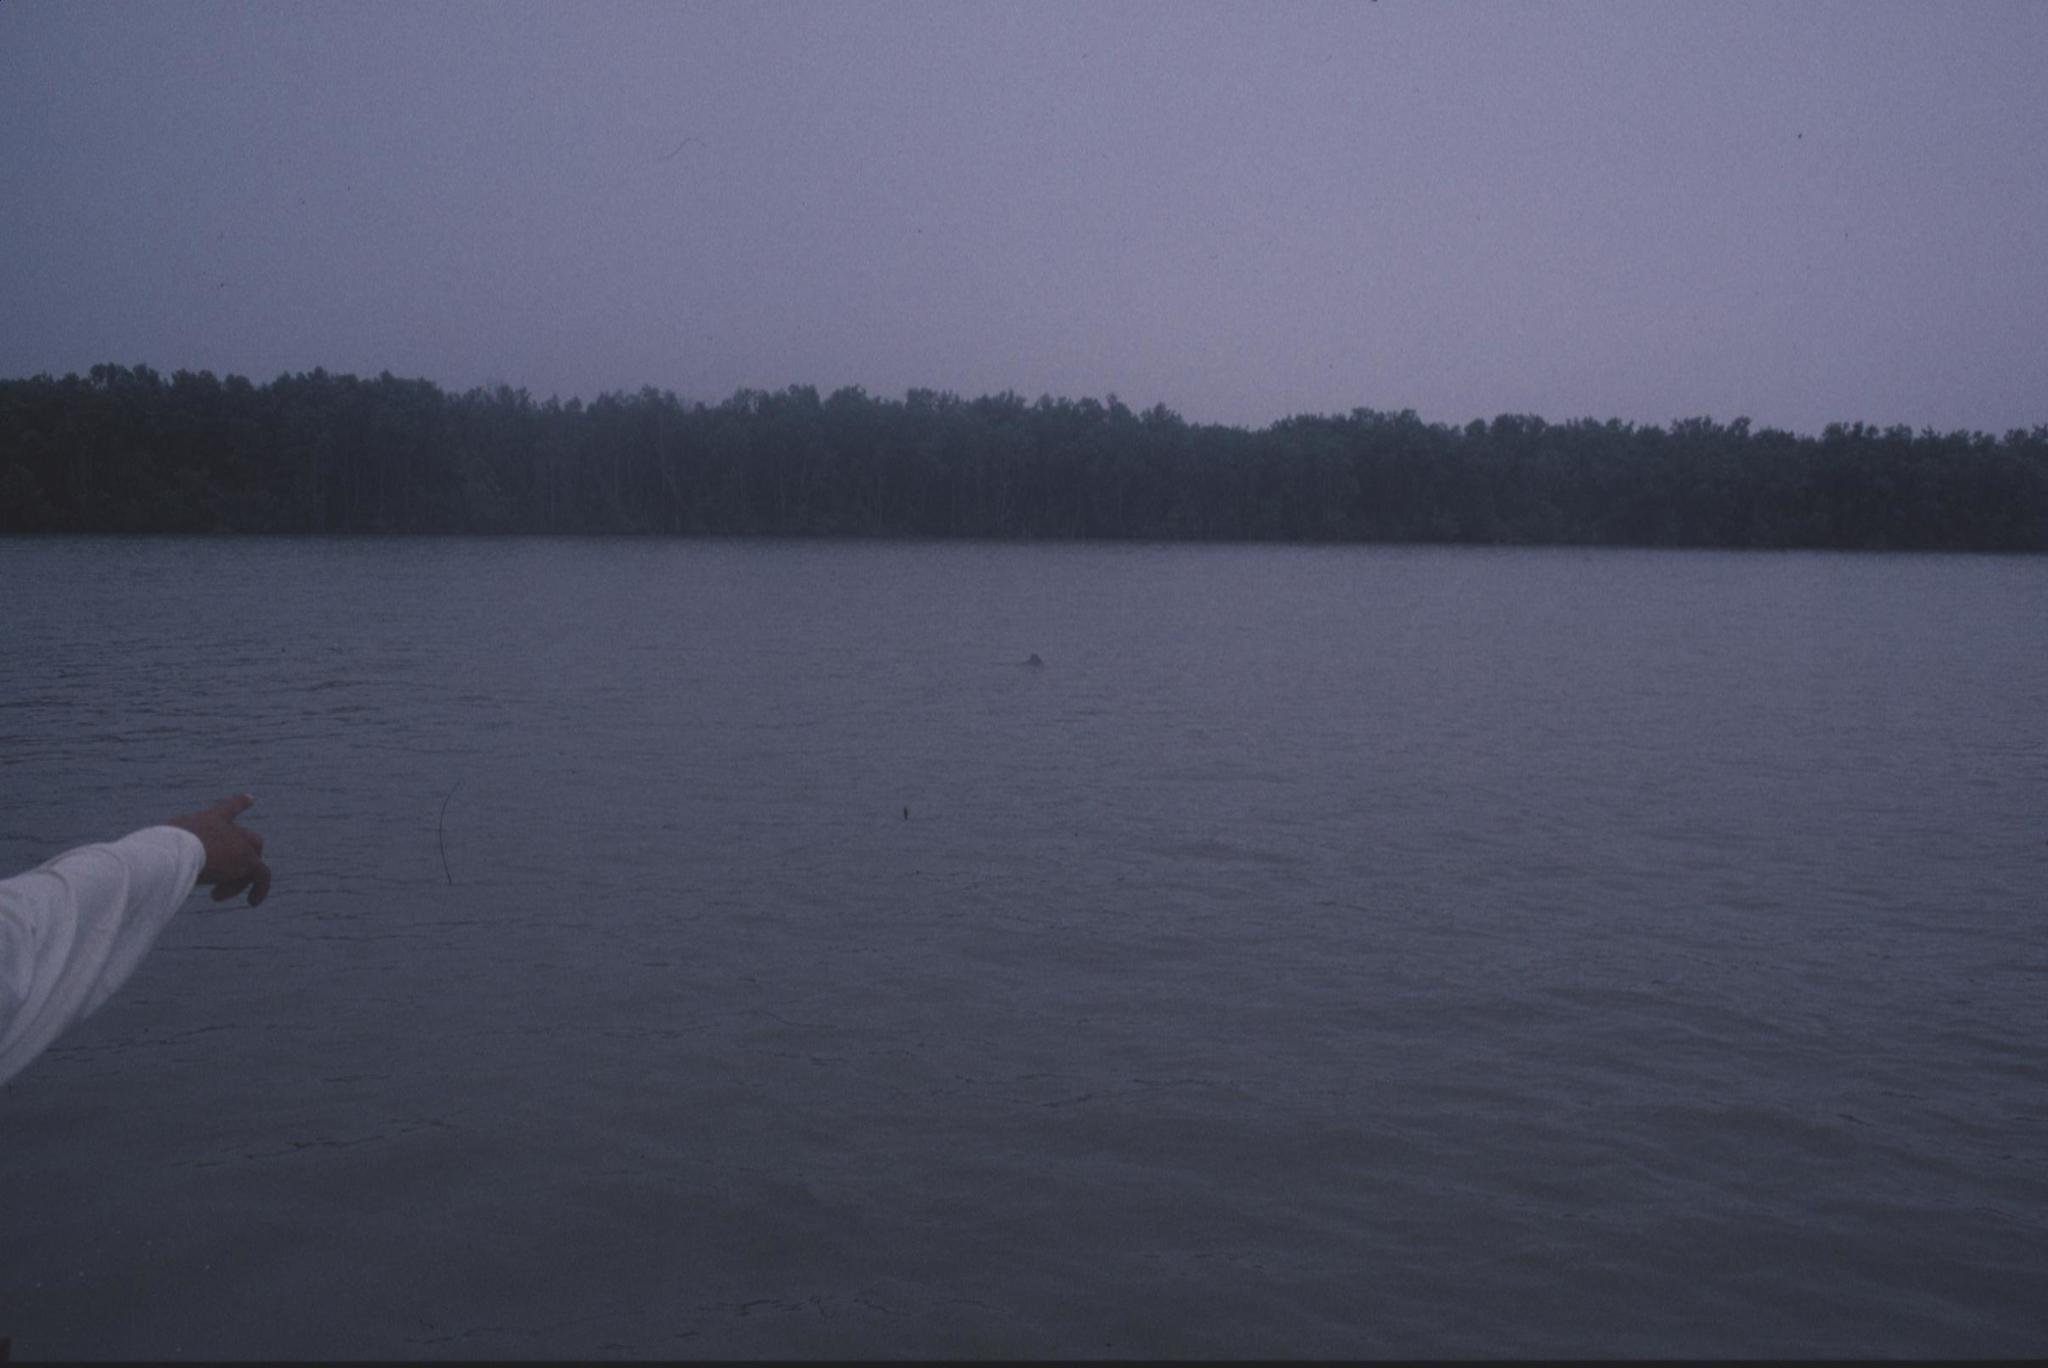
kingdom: Animalia
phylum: Chordata
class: Mammalia
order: Cetacea
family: Delphinidae
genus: Sousa
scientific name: Sousa chinensis
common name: Chinese white dolphin
